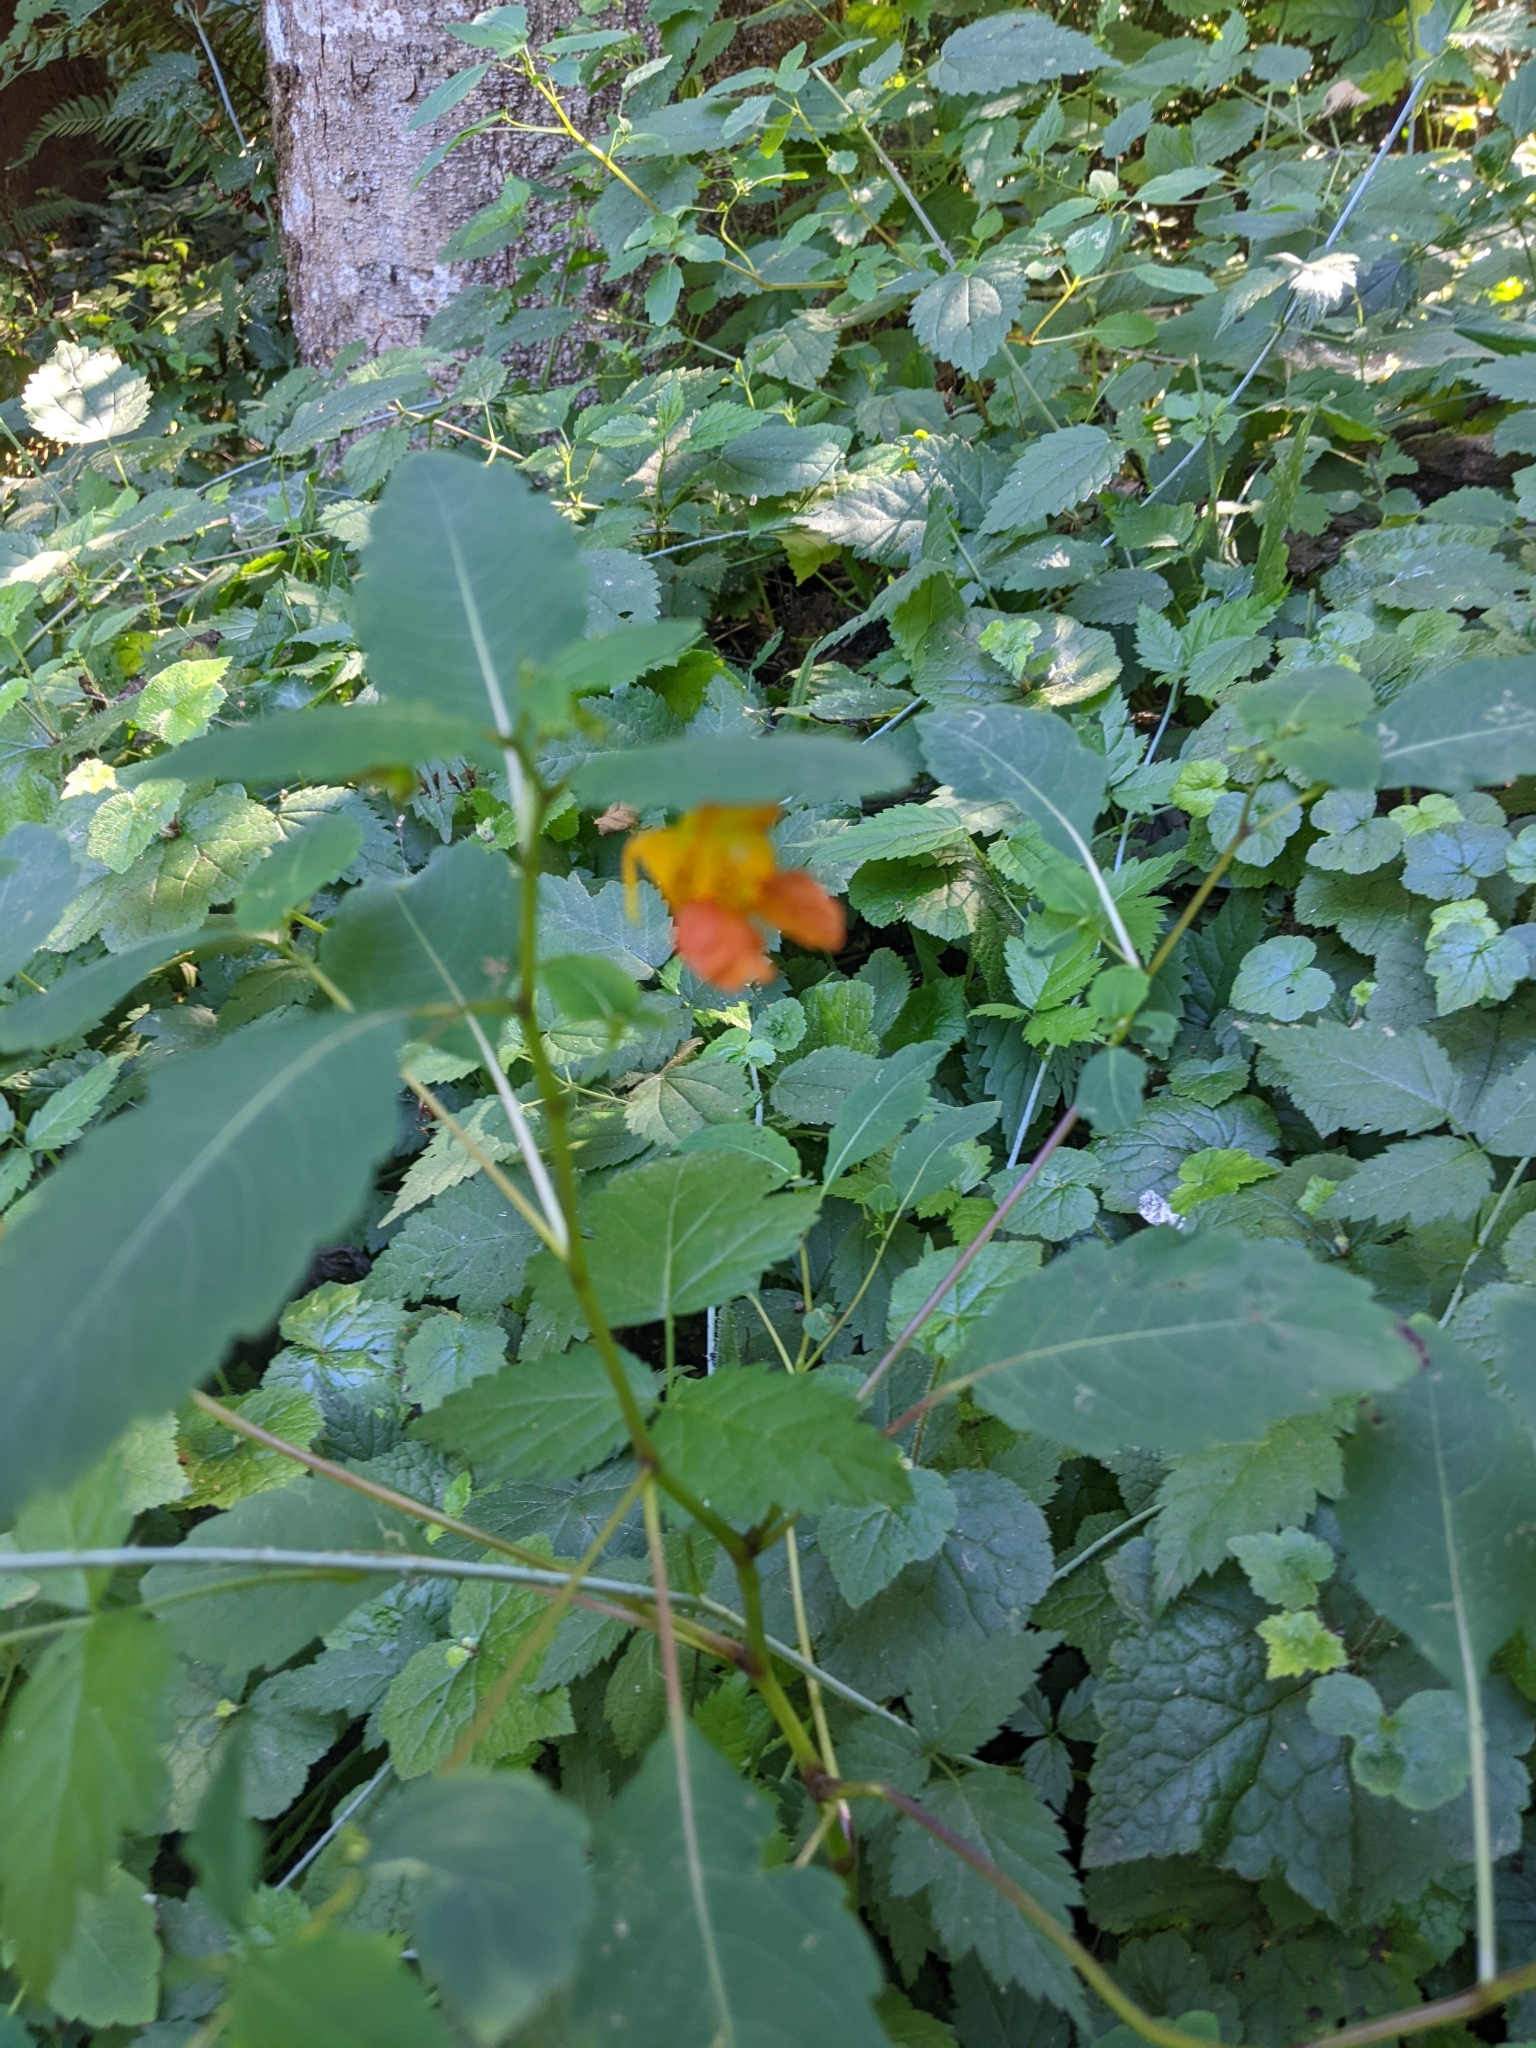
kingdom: Plantae
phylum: Tracheophyta
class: Magnoliopsida
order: Ericales
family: Balsaminaceae
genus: Impatiens
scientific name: Impatiens capensis
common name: Orange balsam
